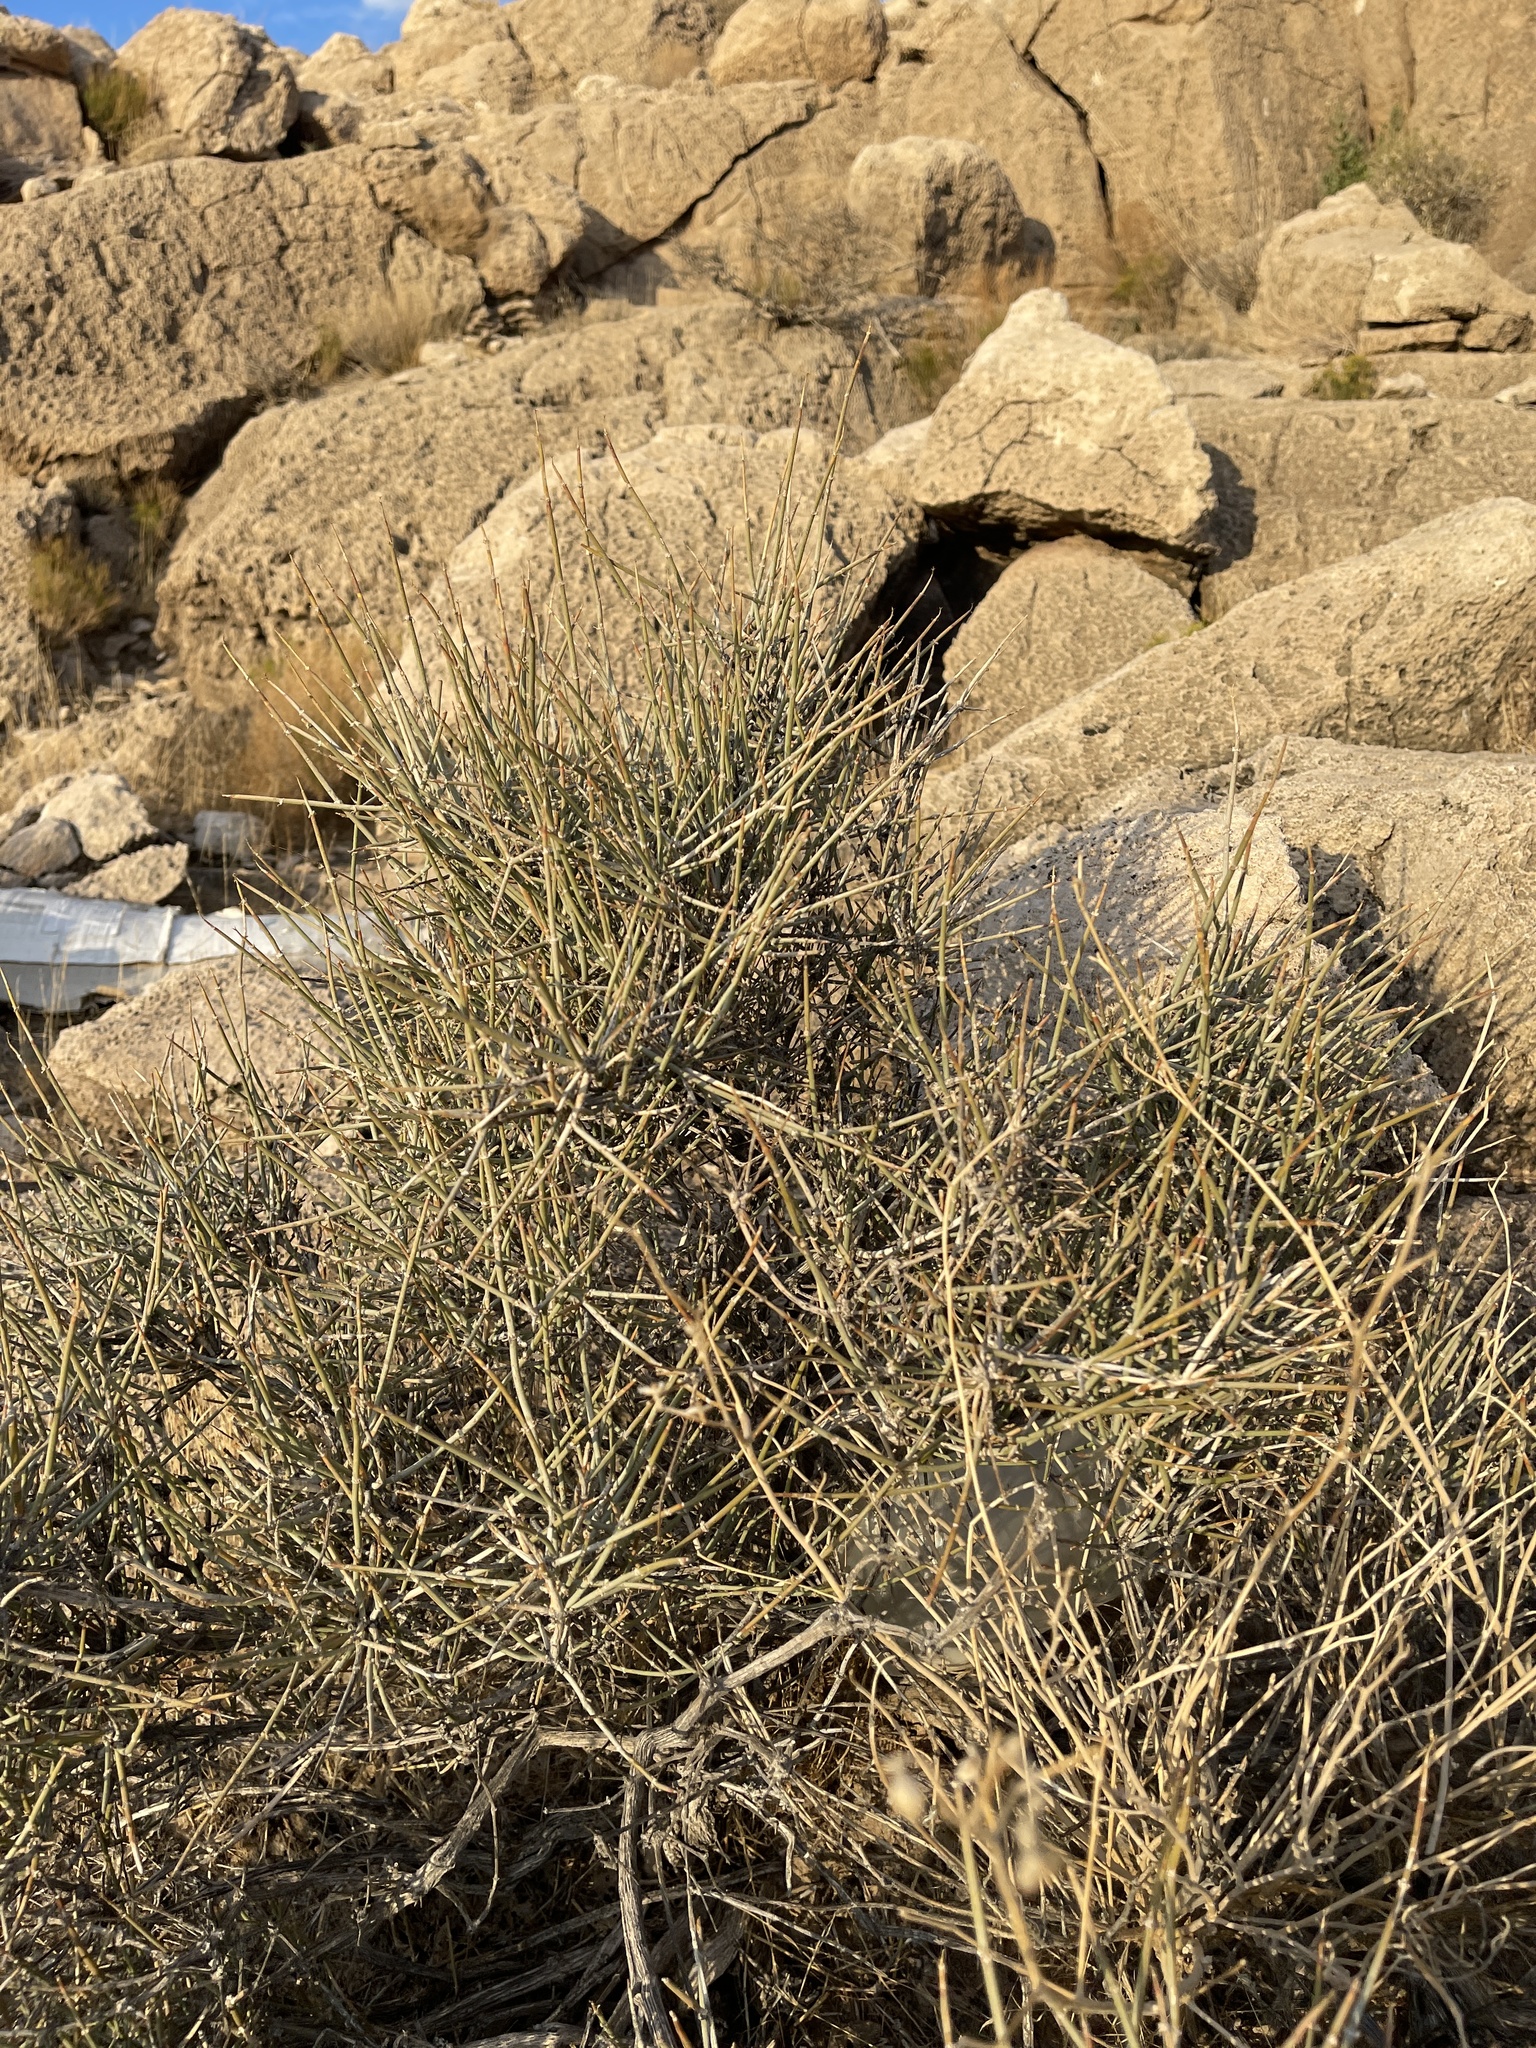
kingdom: Plantae
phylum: Tracheophyta
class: Gnetopsida
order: Ephedrales
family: Ephedraceae
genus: Ephedra
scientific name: Ephedra nevadensis
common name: Gray ephedra
